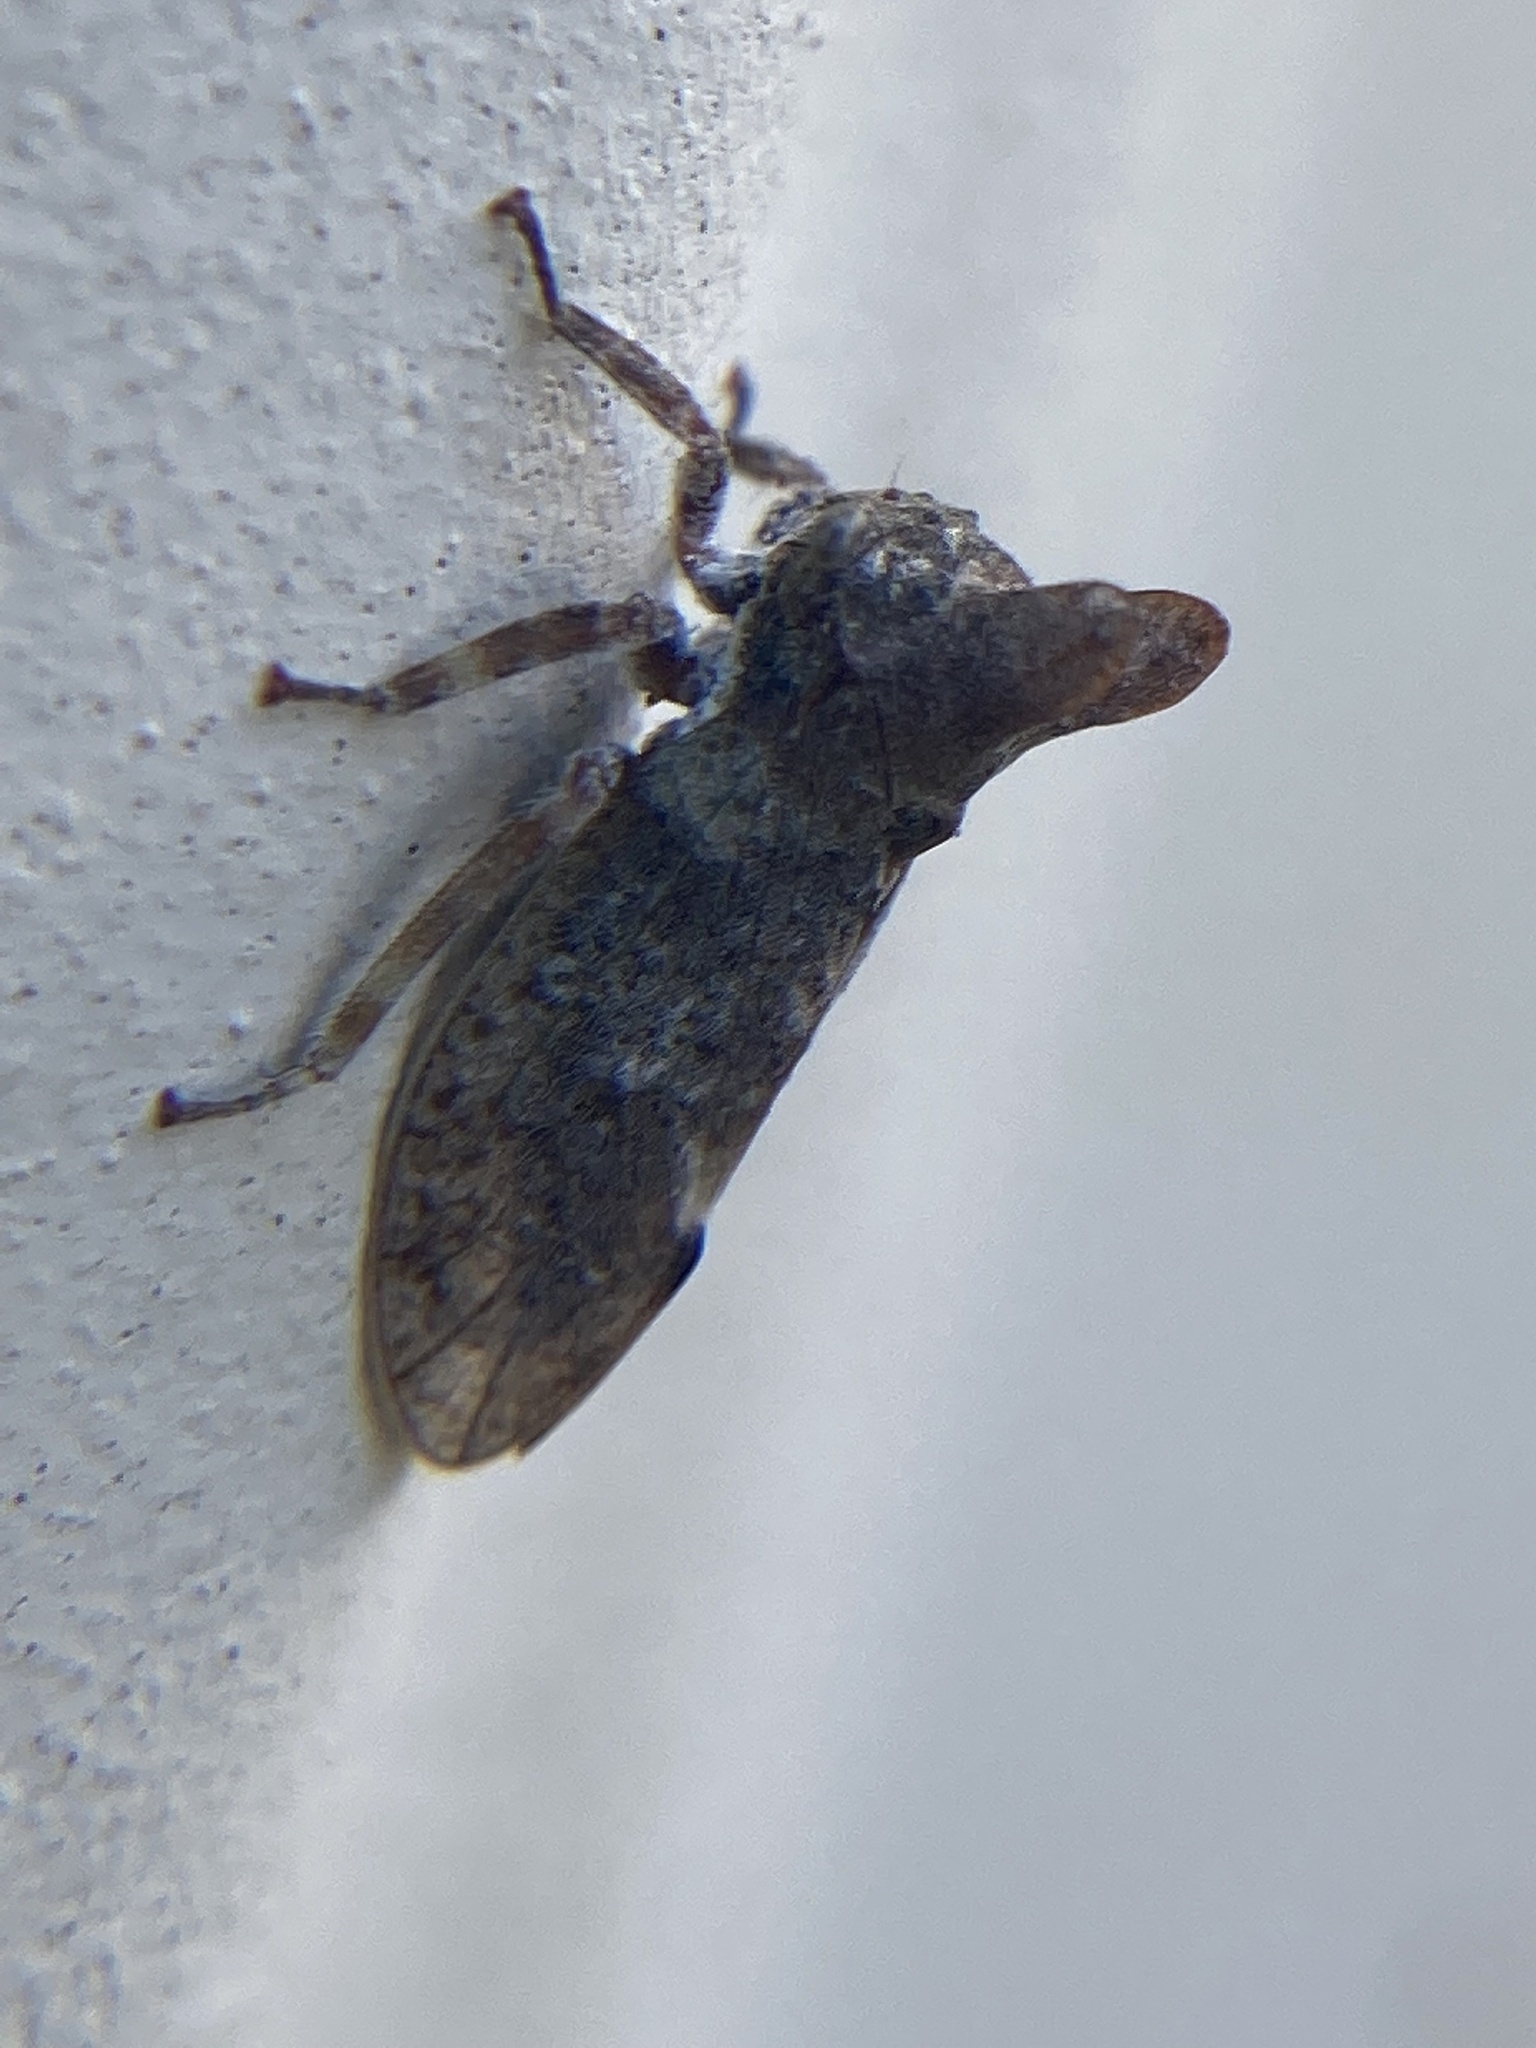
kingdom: Animalia
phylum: Arthropoda
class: Insecta
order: Hemiptera
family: Membracidae
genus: Microcentrus
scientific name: Microcentrus perdita
